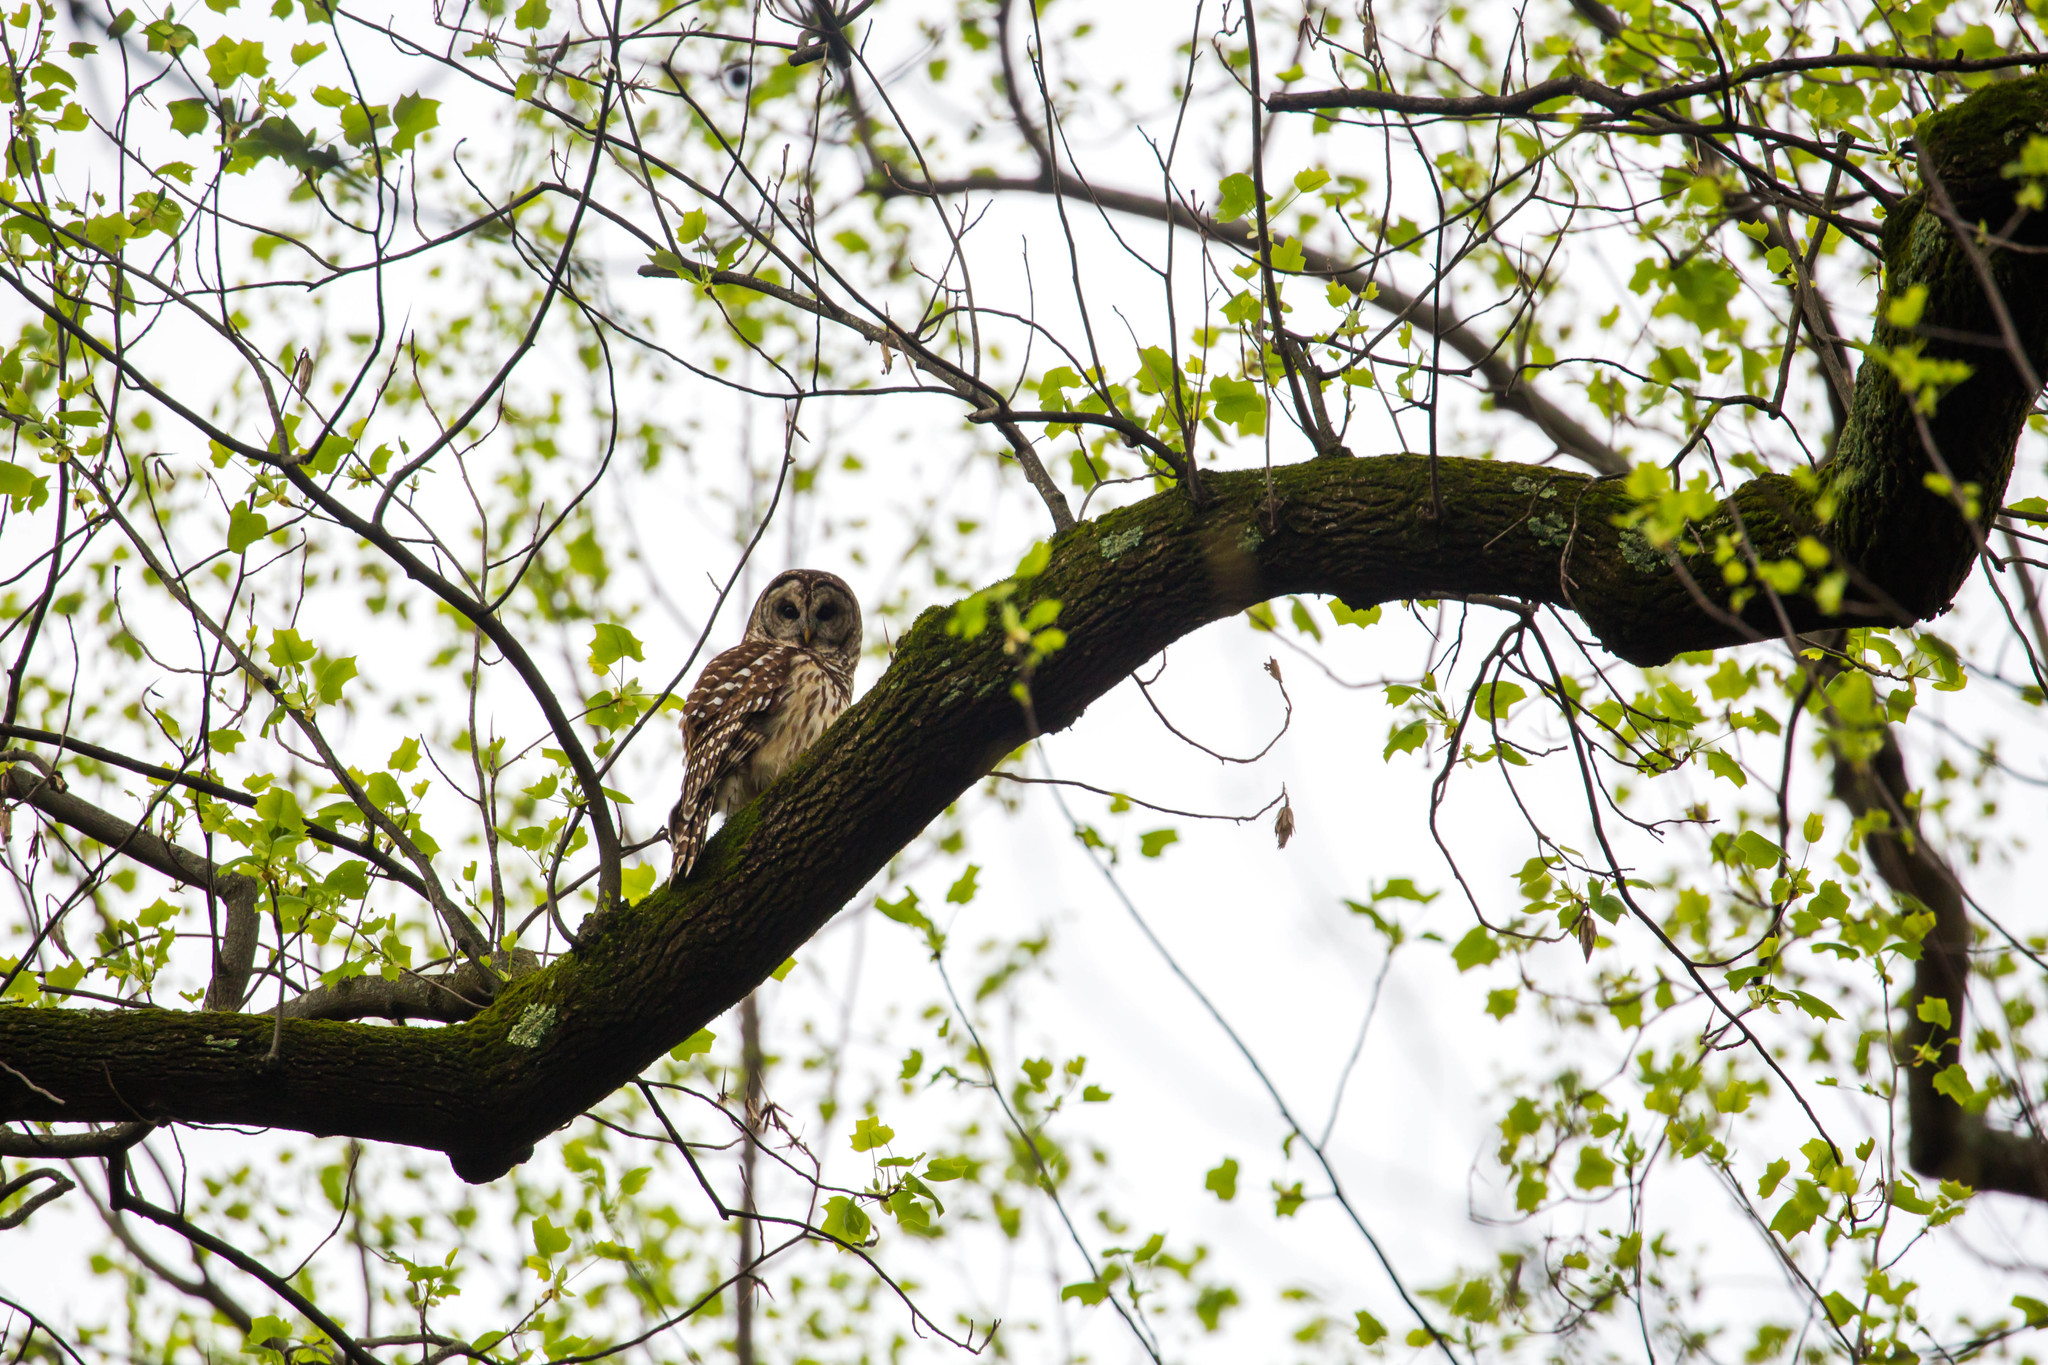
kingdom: Animalia
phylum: Chordata
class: Aves
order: Strigiformes
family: Strigidae
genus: Strix
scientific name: Strix varia
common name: Barred owl
